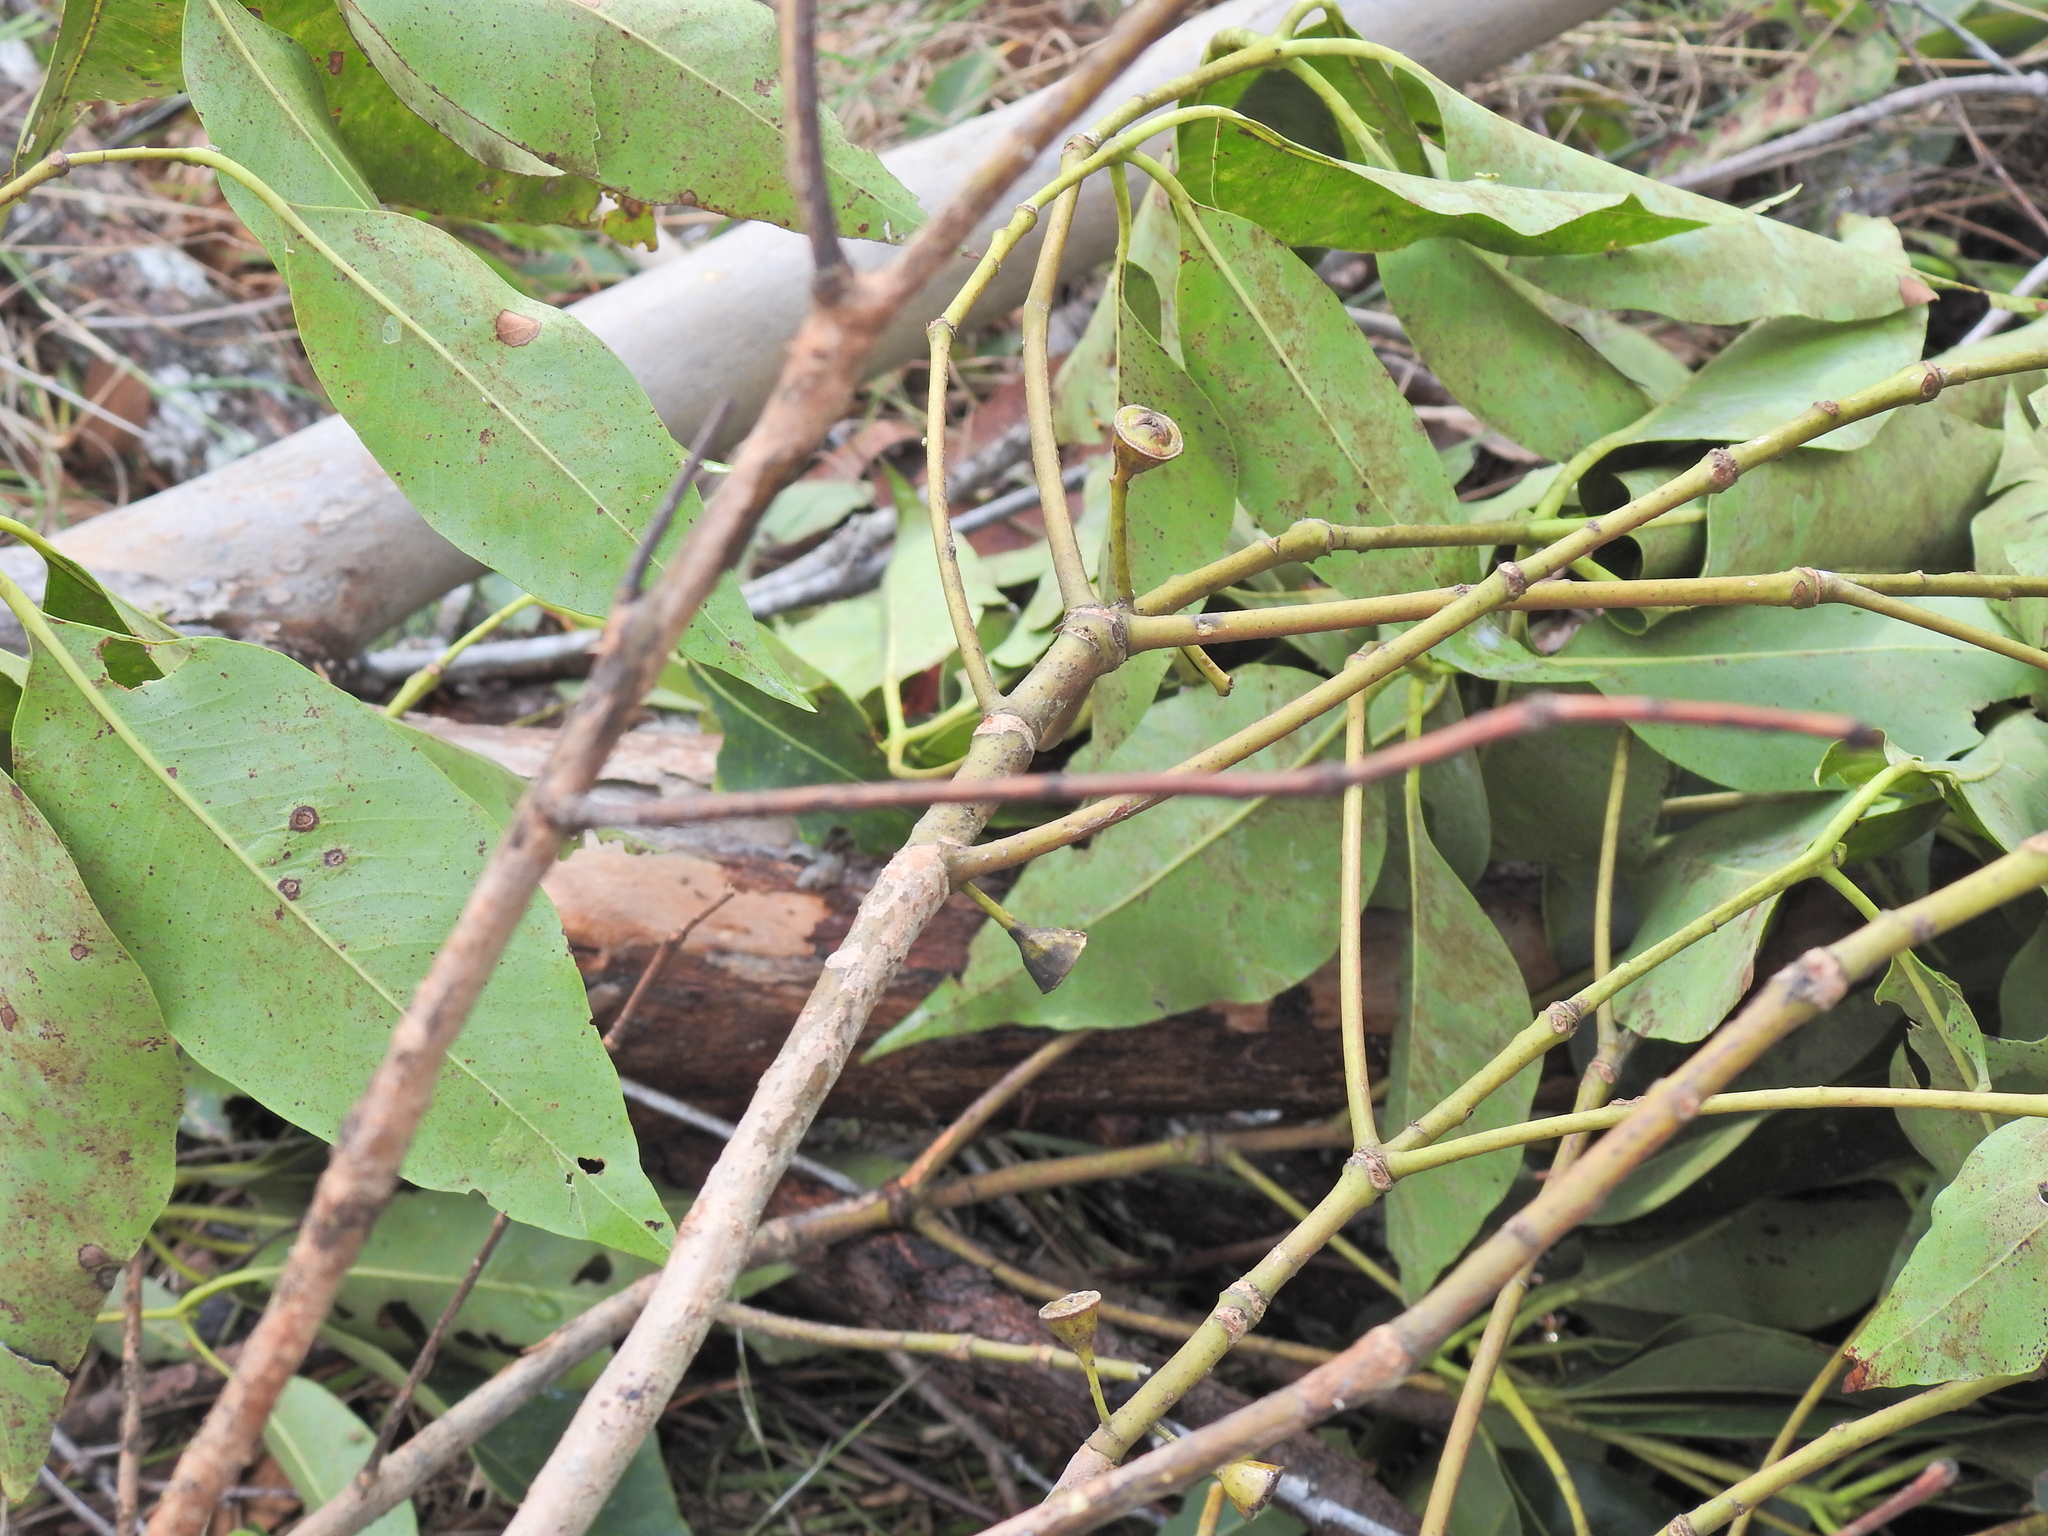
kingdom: Plantae
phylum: Tracheophyta
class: Magnoliopsida
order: Myrtales
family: Myrtaceae
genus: Lophostemon
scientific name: Lophostemon confertus
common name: Brisbane box
